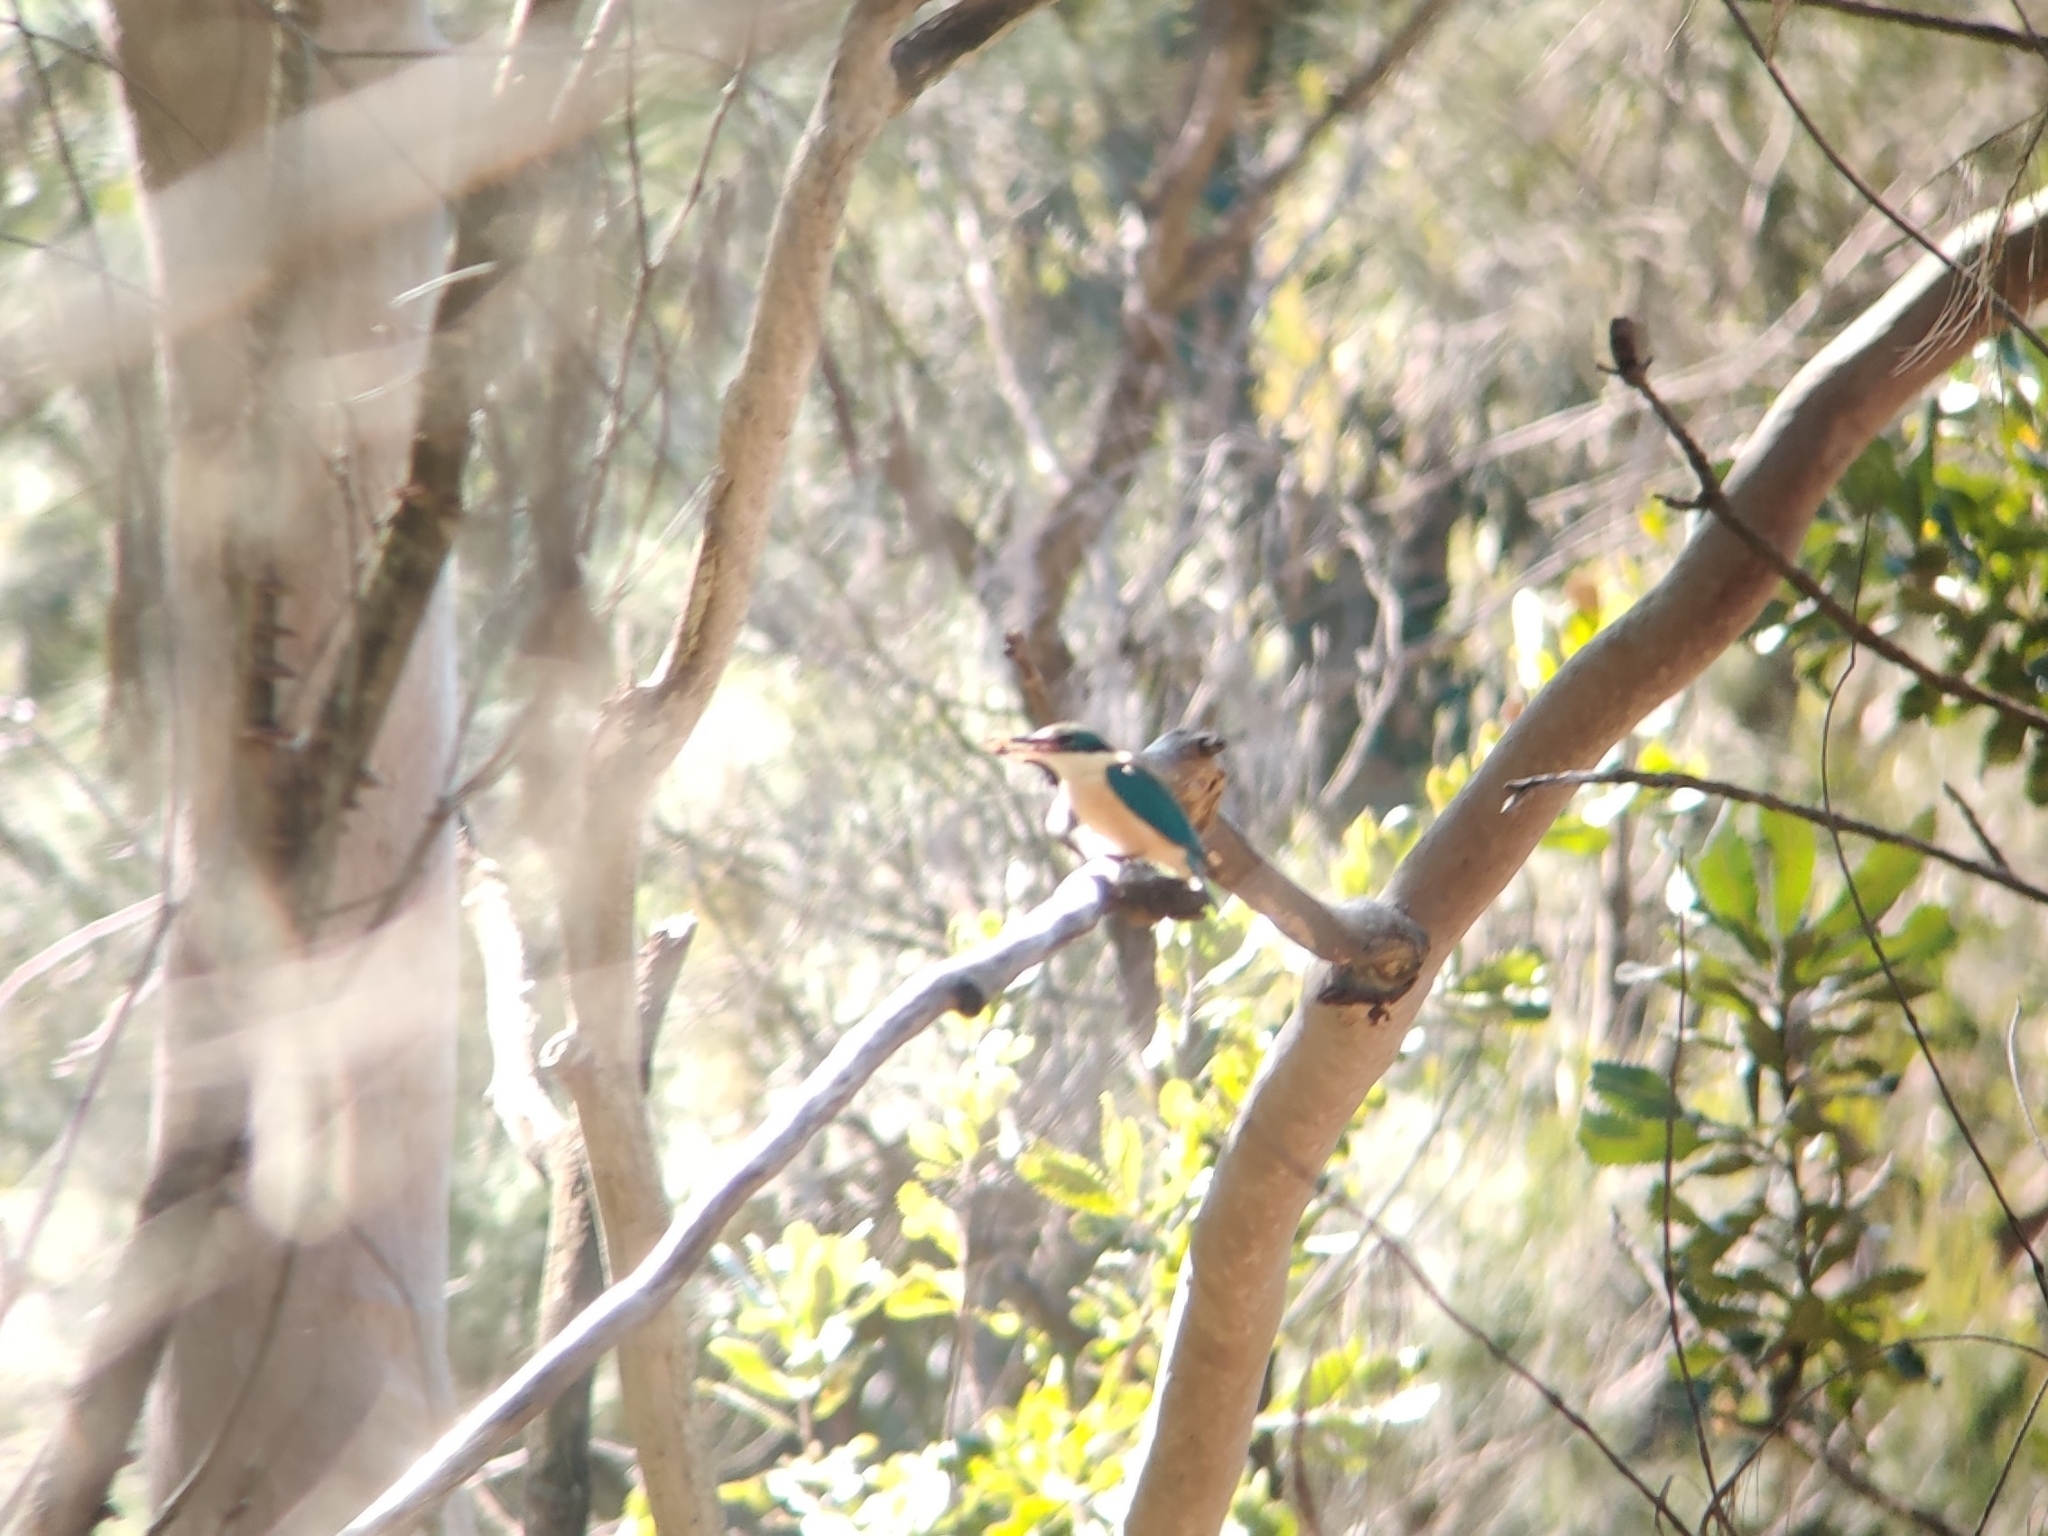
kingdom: Animalia
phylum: Chordata
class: Aves
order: Coraciiformes
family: Alcedinidae
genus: Todiramphus
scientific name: Todiramphus sanctus
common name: Sacred kingfisher
